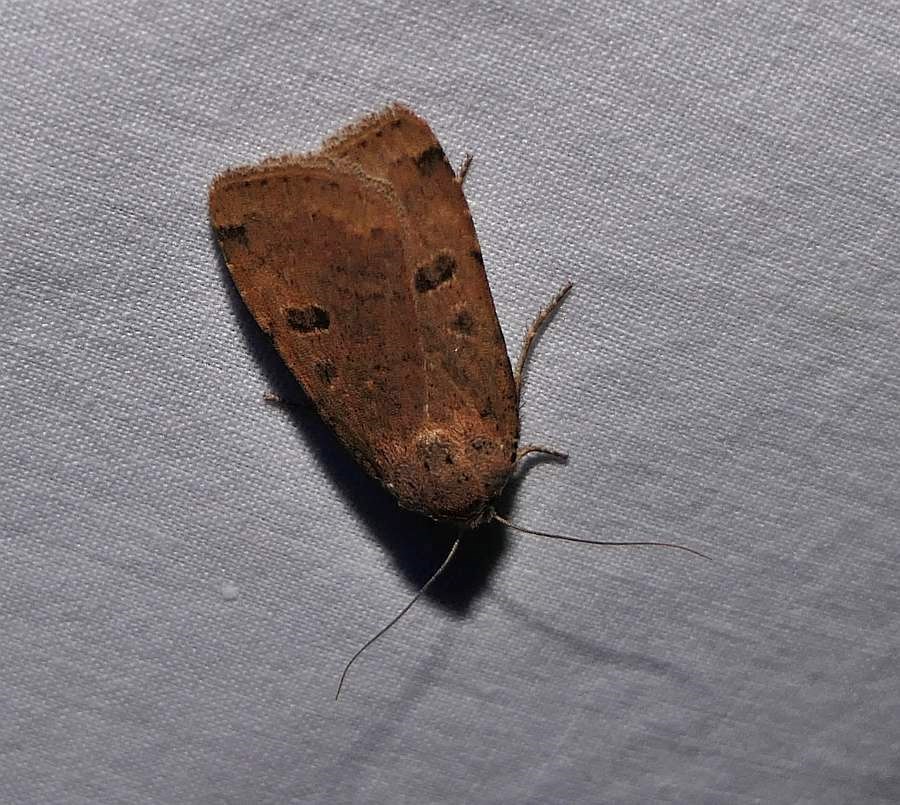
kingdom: Animalia
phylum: Arthropoda
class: Insecta
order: Lepidoptera
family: Noctuidae
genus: Abagrotis
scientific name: Abagrotis cupida
